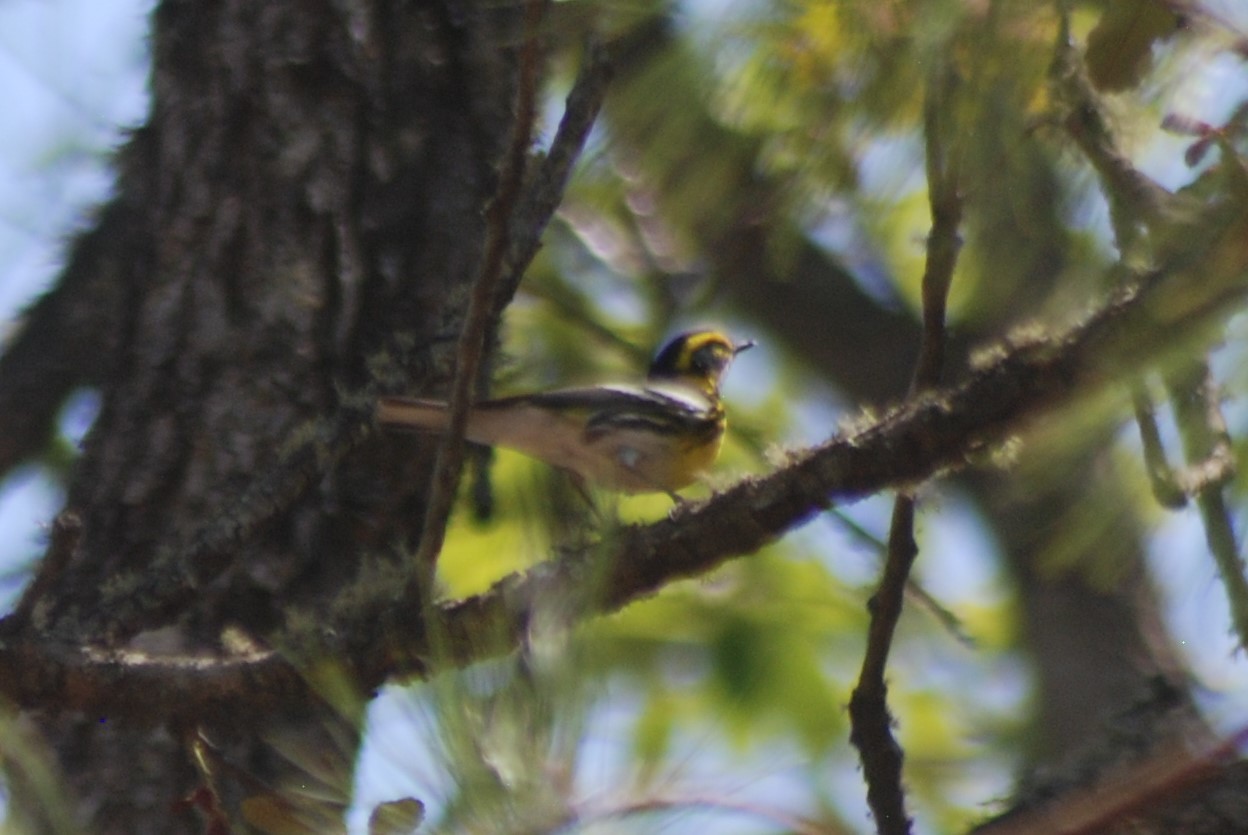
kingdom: Animalia
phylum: Chordata
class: Aves
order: Passeriformes
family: Parulidae
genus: Setophaga
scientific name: Setophaga townsendi
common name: Townsend's warbler
